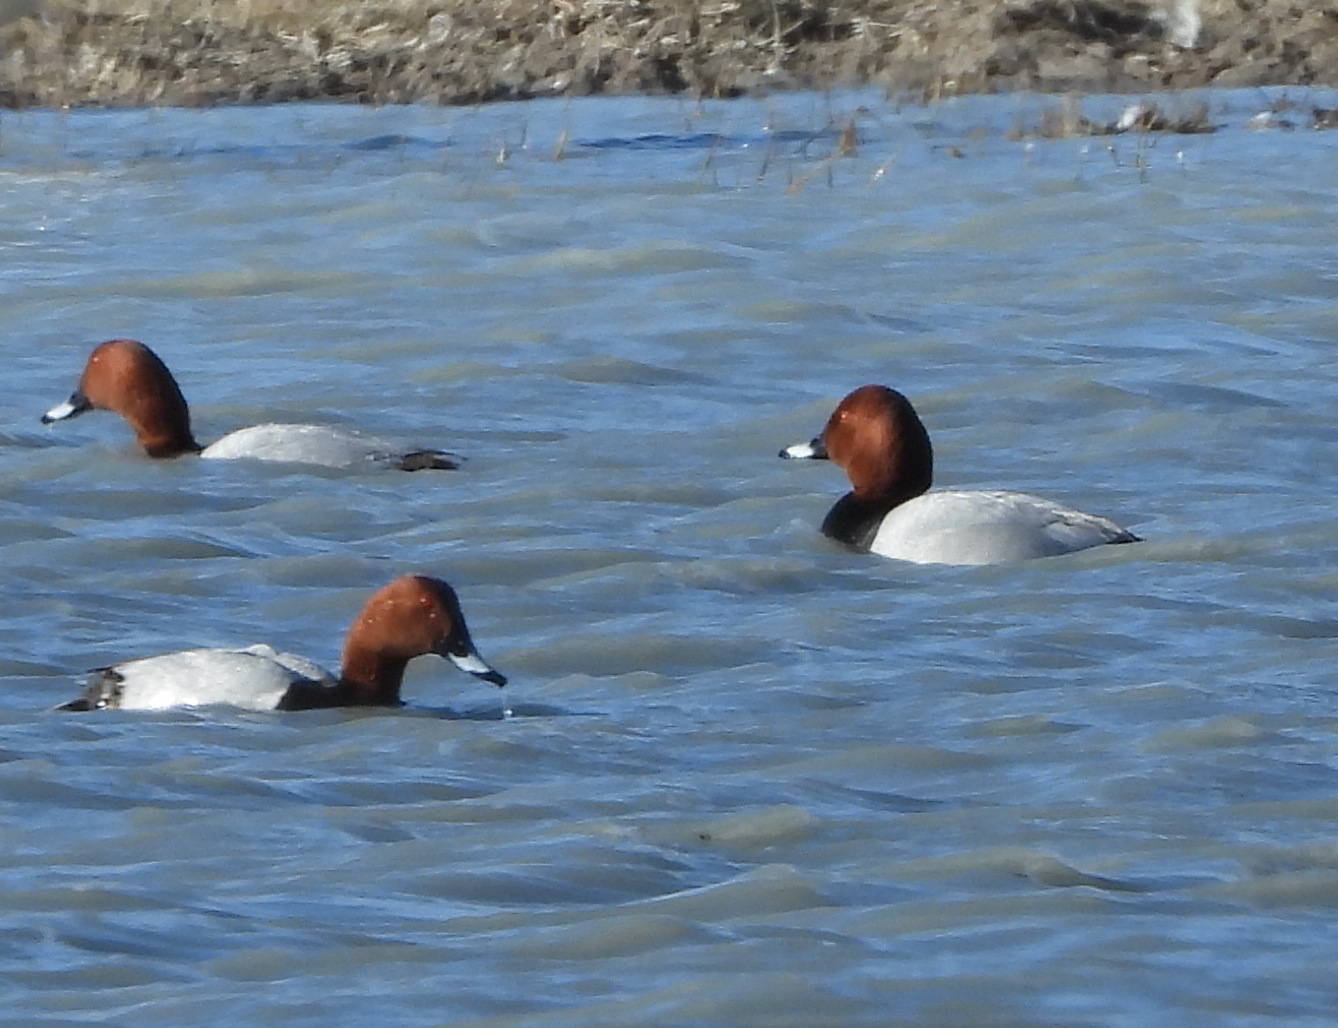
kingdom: Animalia
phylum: Chordata
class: Aves
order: Anseriformes
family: Anatidae
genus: Aythya
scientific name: Aythya ferina
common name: Common pochard
